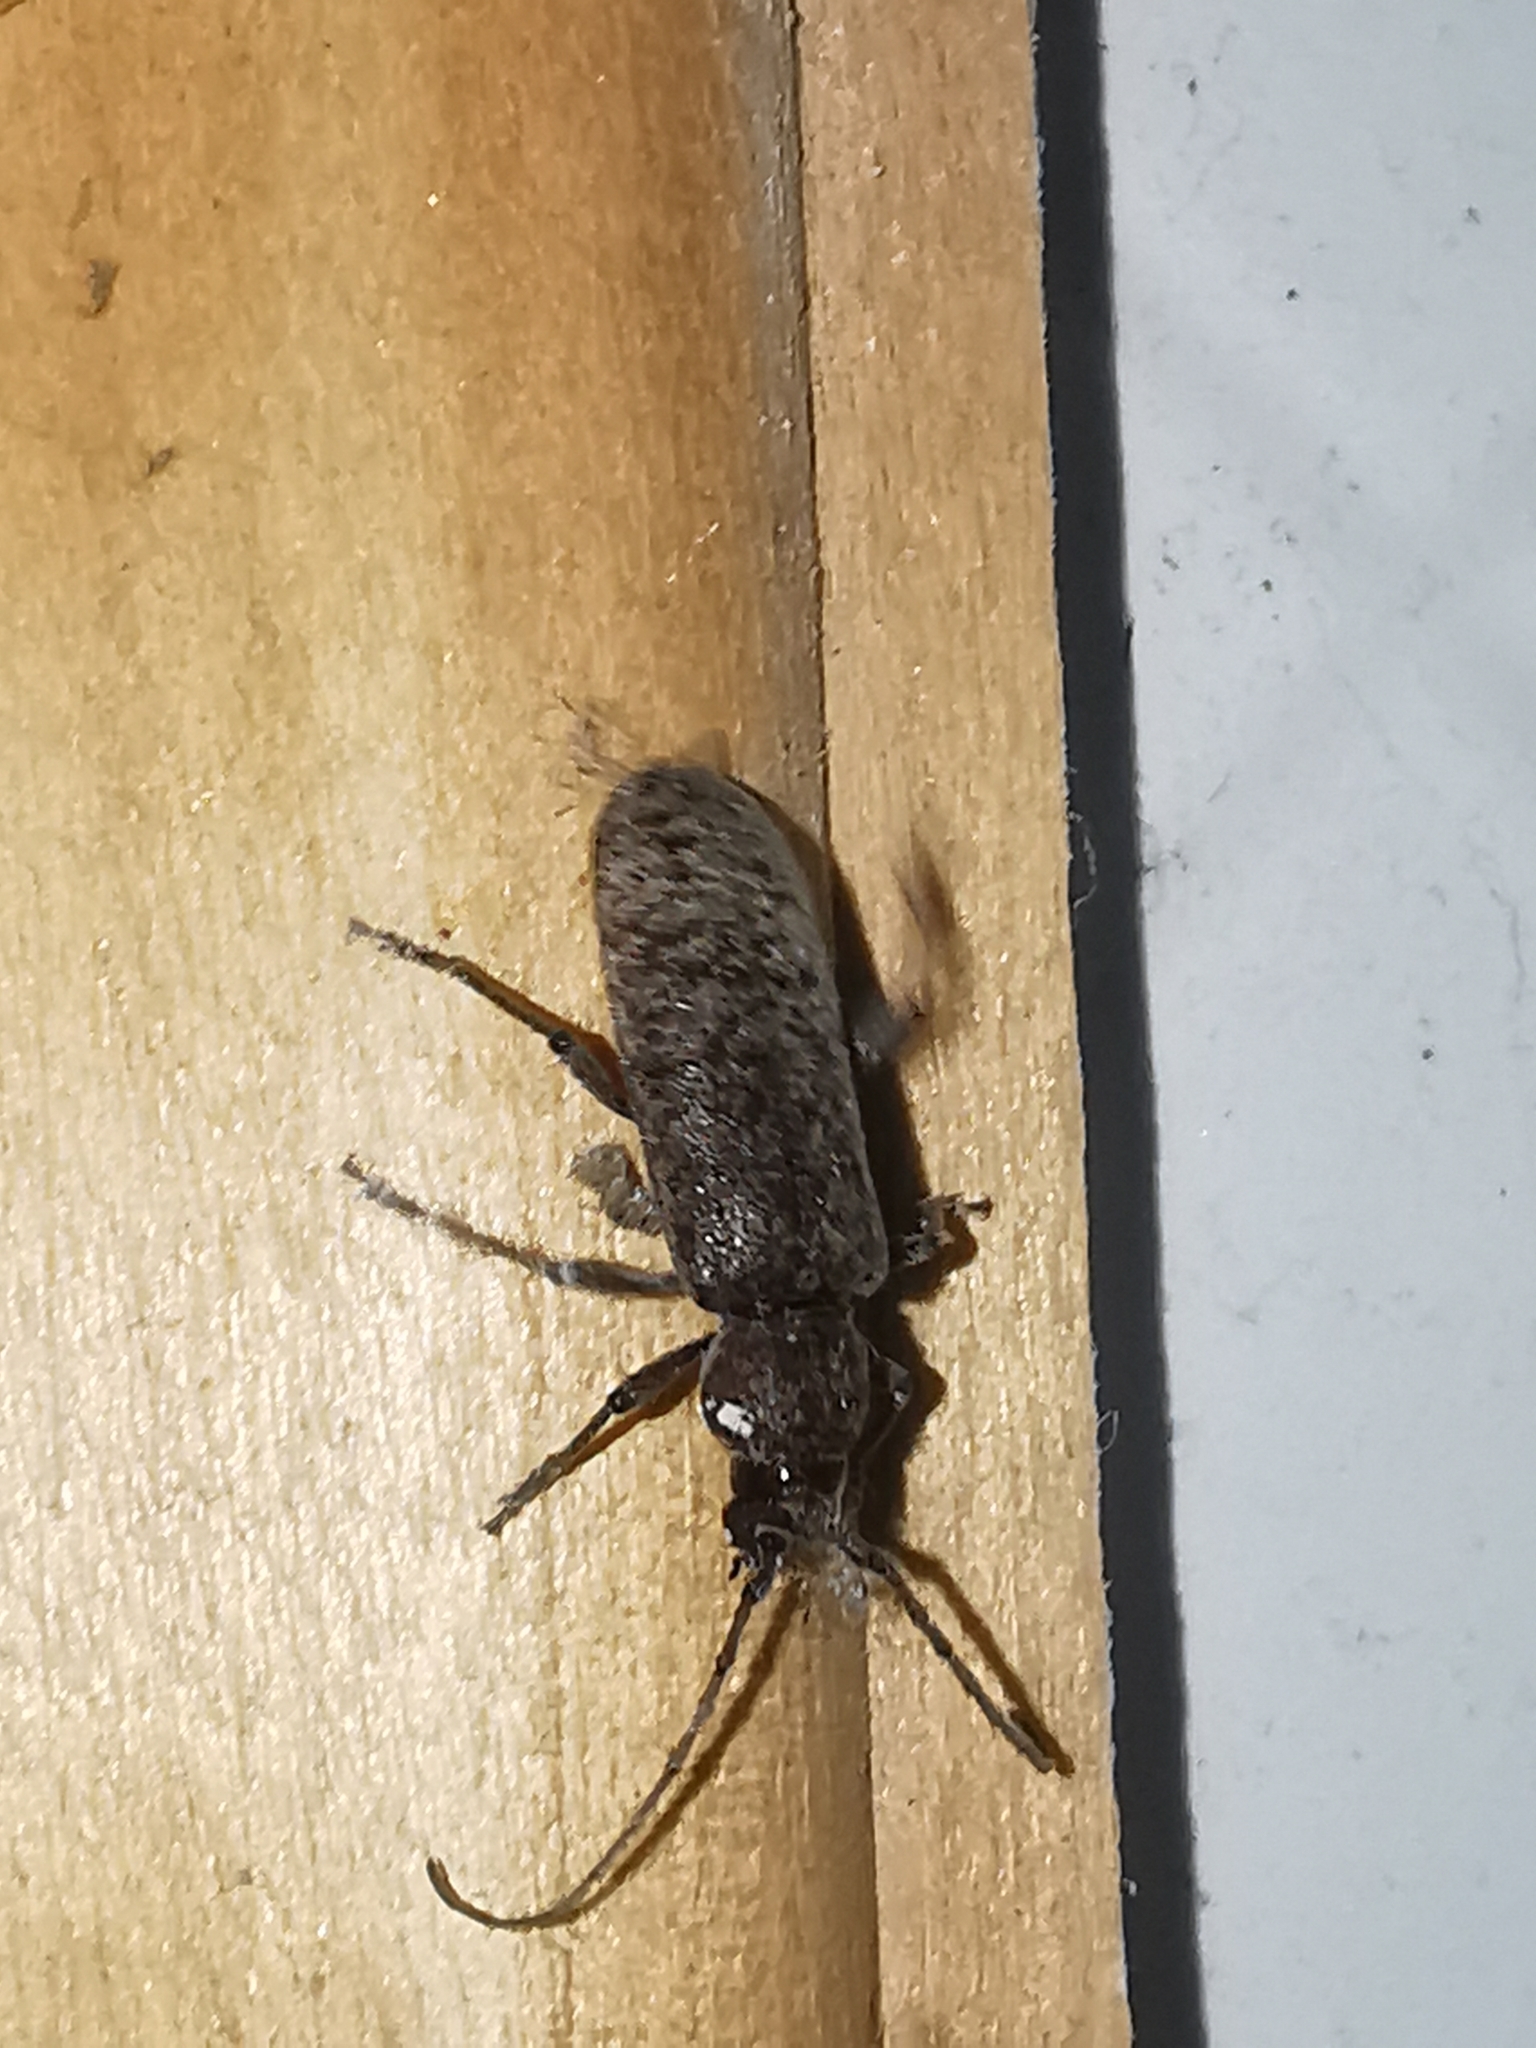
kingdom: Animalia
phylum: Arthropoda
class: Insecta
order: Coleoptera
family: Cerambycidae
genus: Trichoferus
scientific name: Trichoferus
